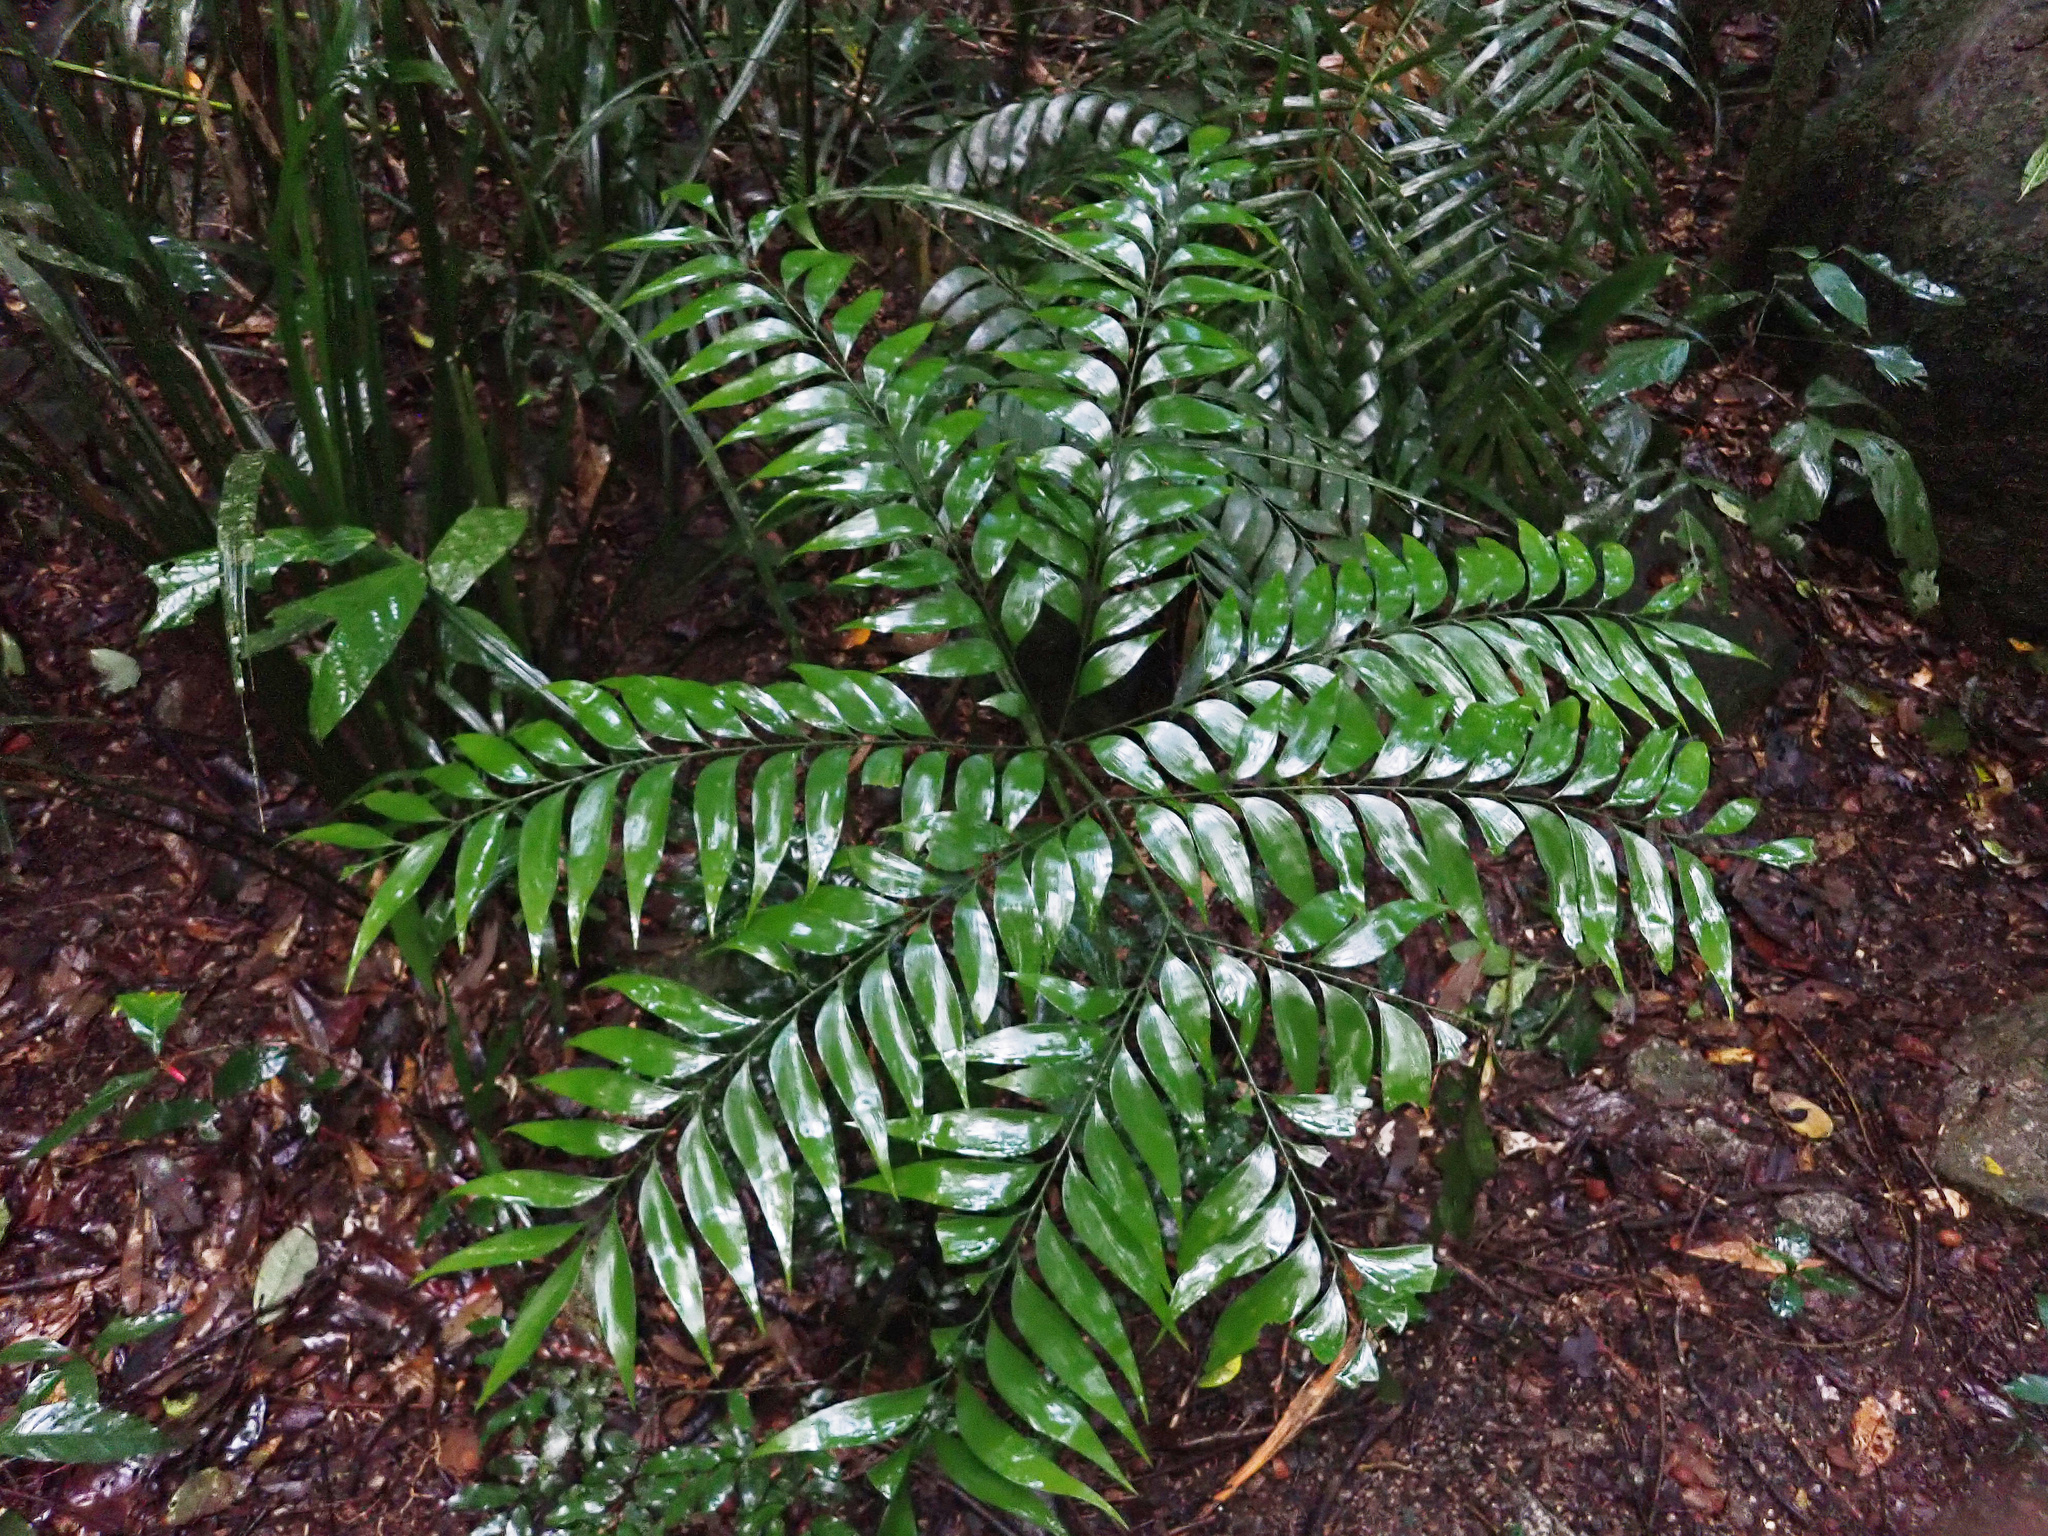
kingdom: Plantae
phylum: Tracheophyta
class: Cycadopsida
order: Cycadales
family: Zamiaceae
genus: Bowenia
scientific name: Bowenia spectabilis
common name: Zamia-fern
